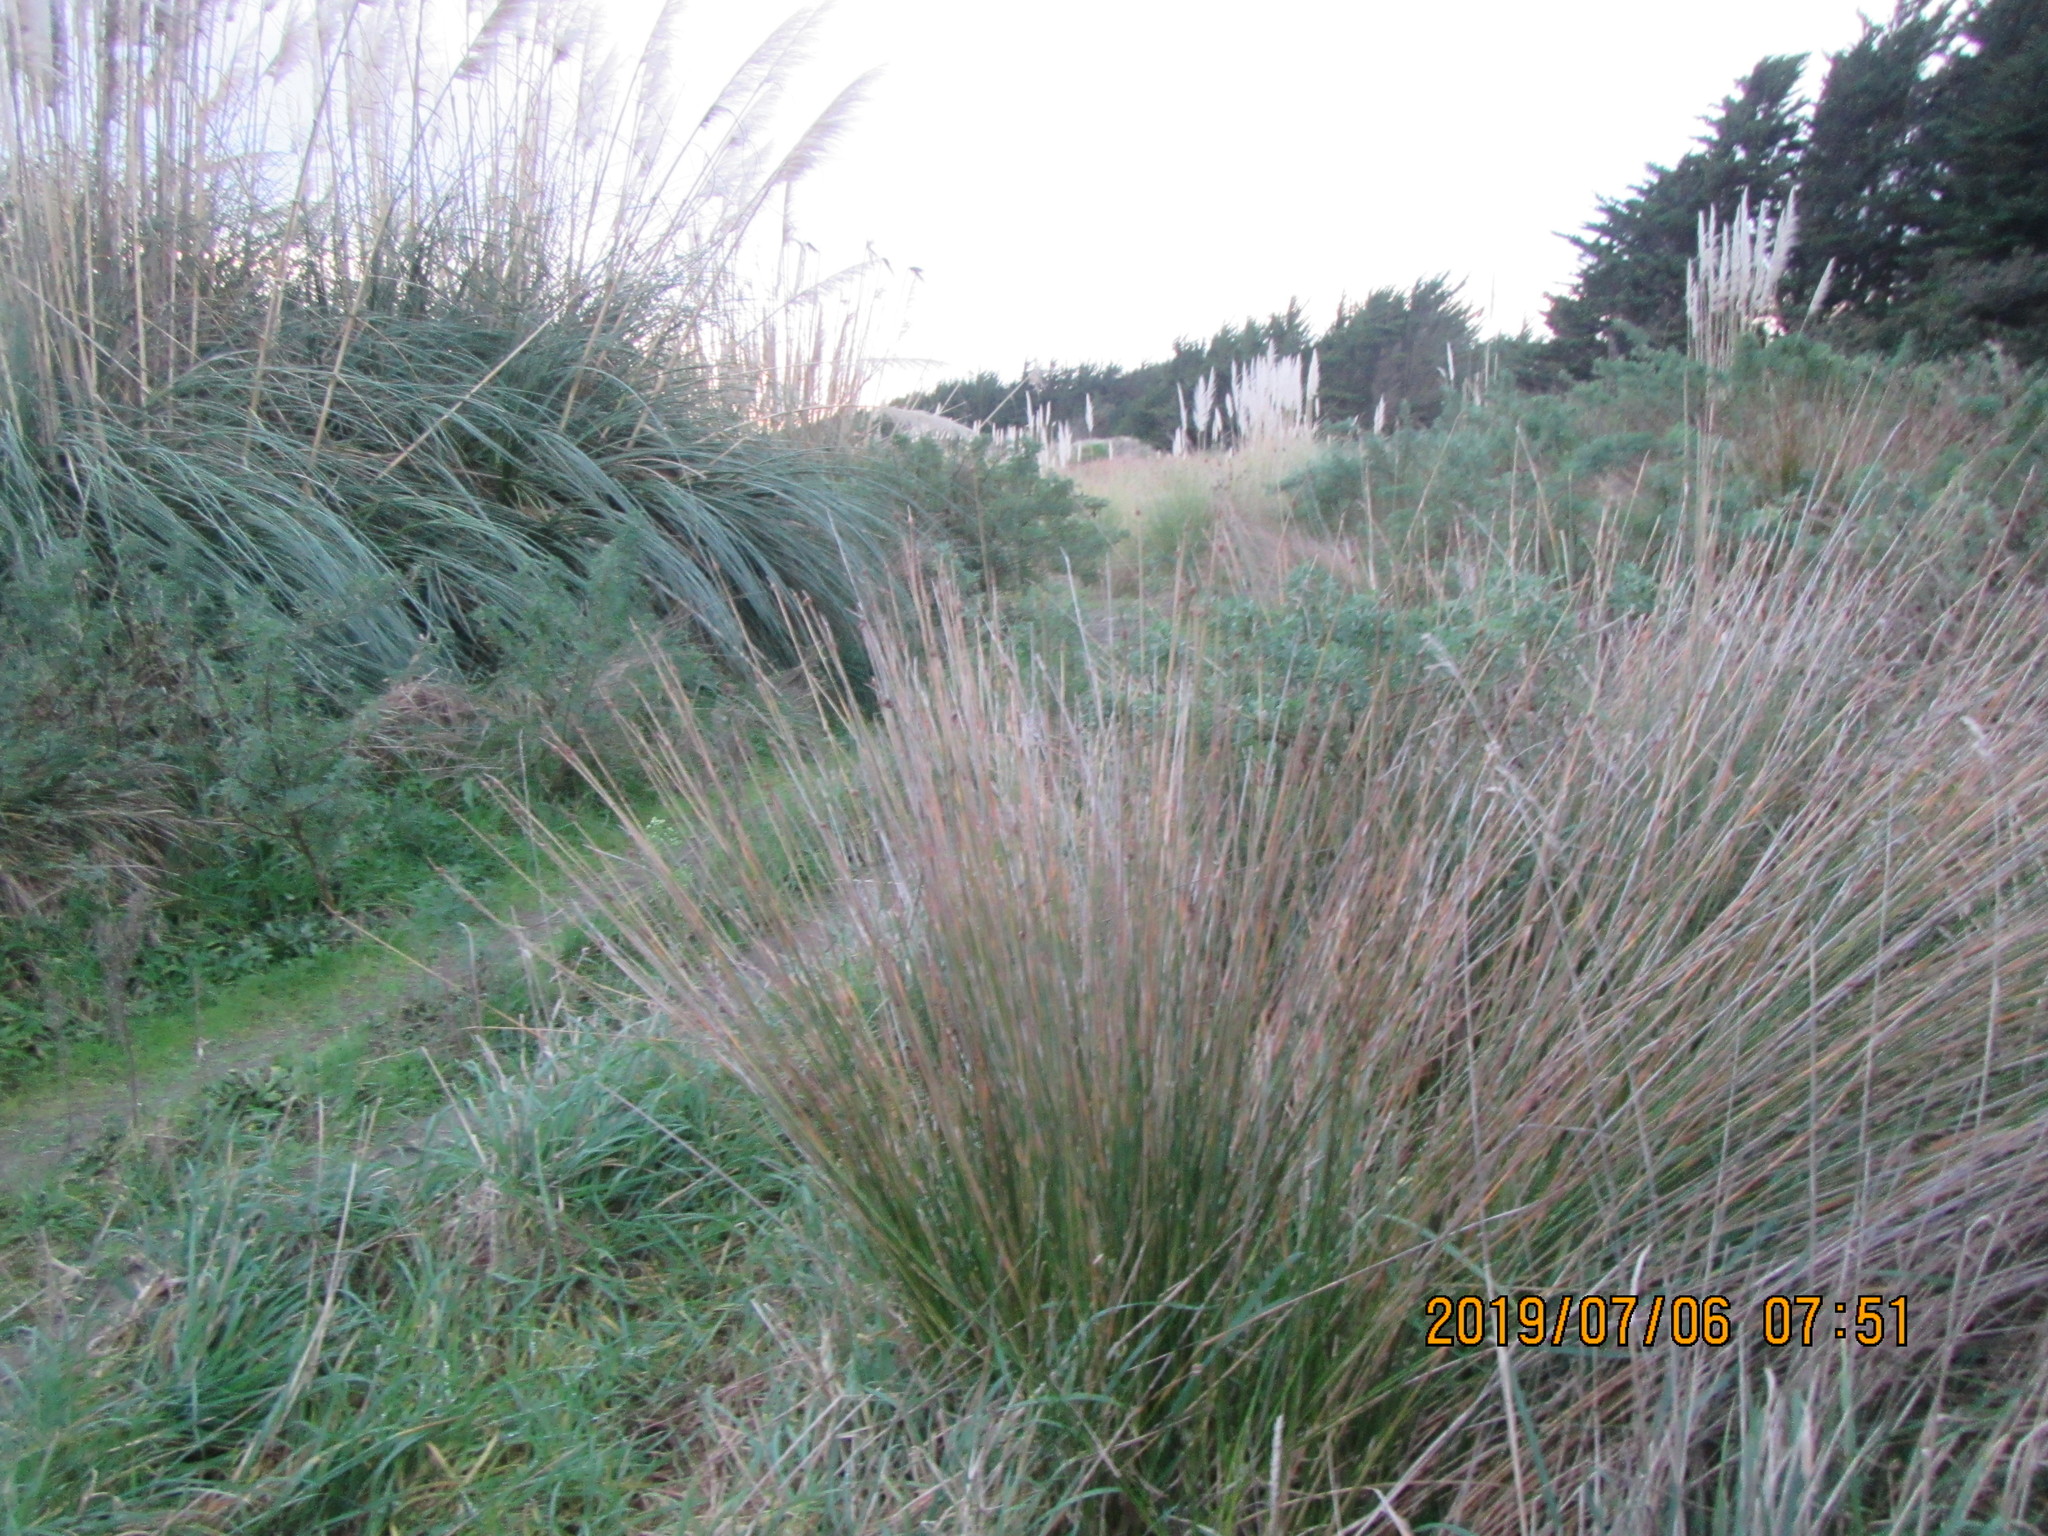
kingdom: Plantae
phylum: Tracheophyta
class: Liliopsida
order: Poales
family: Cyperaceae
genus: Ficinia
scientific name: Ficinia nodosa
